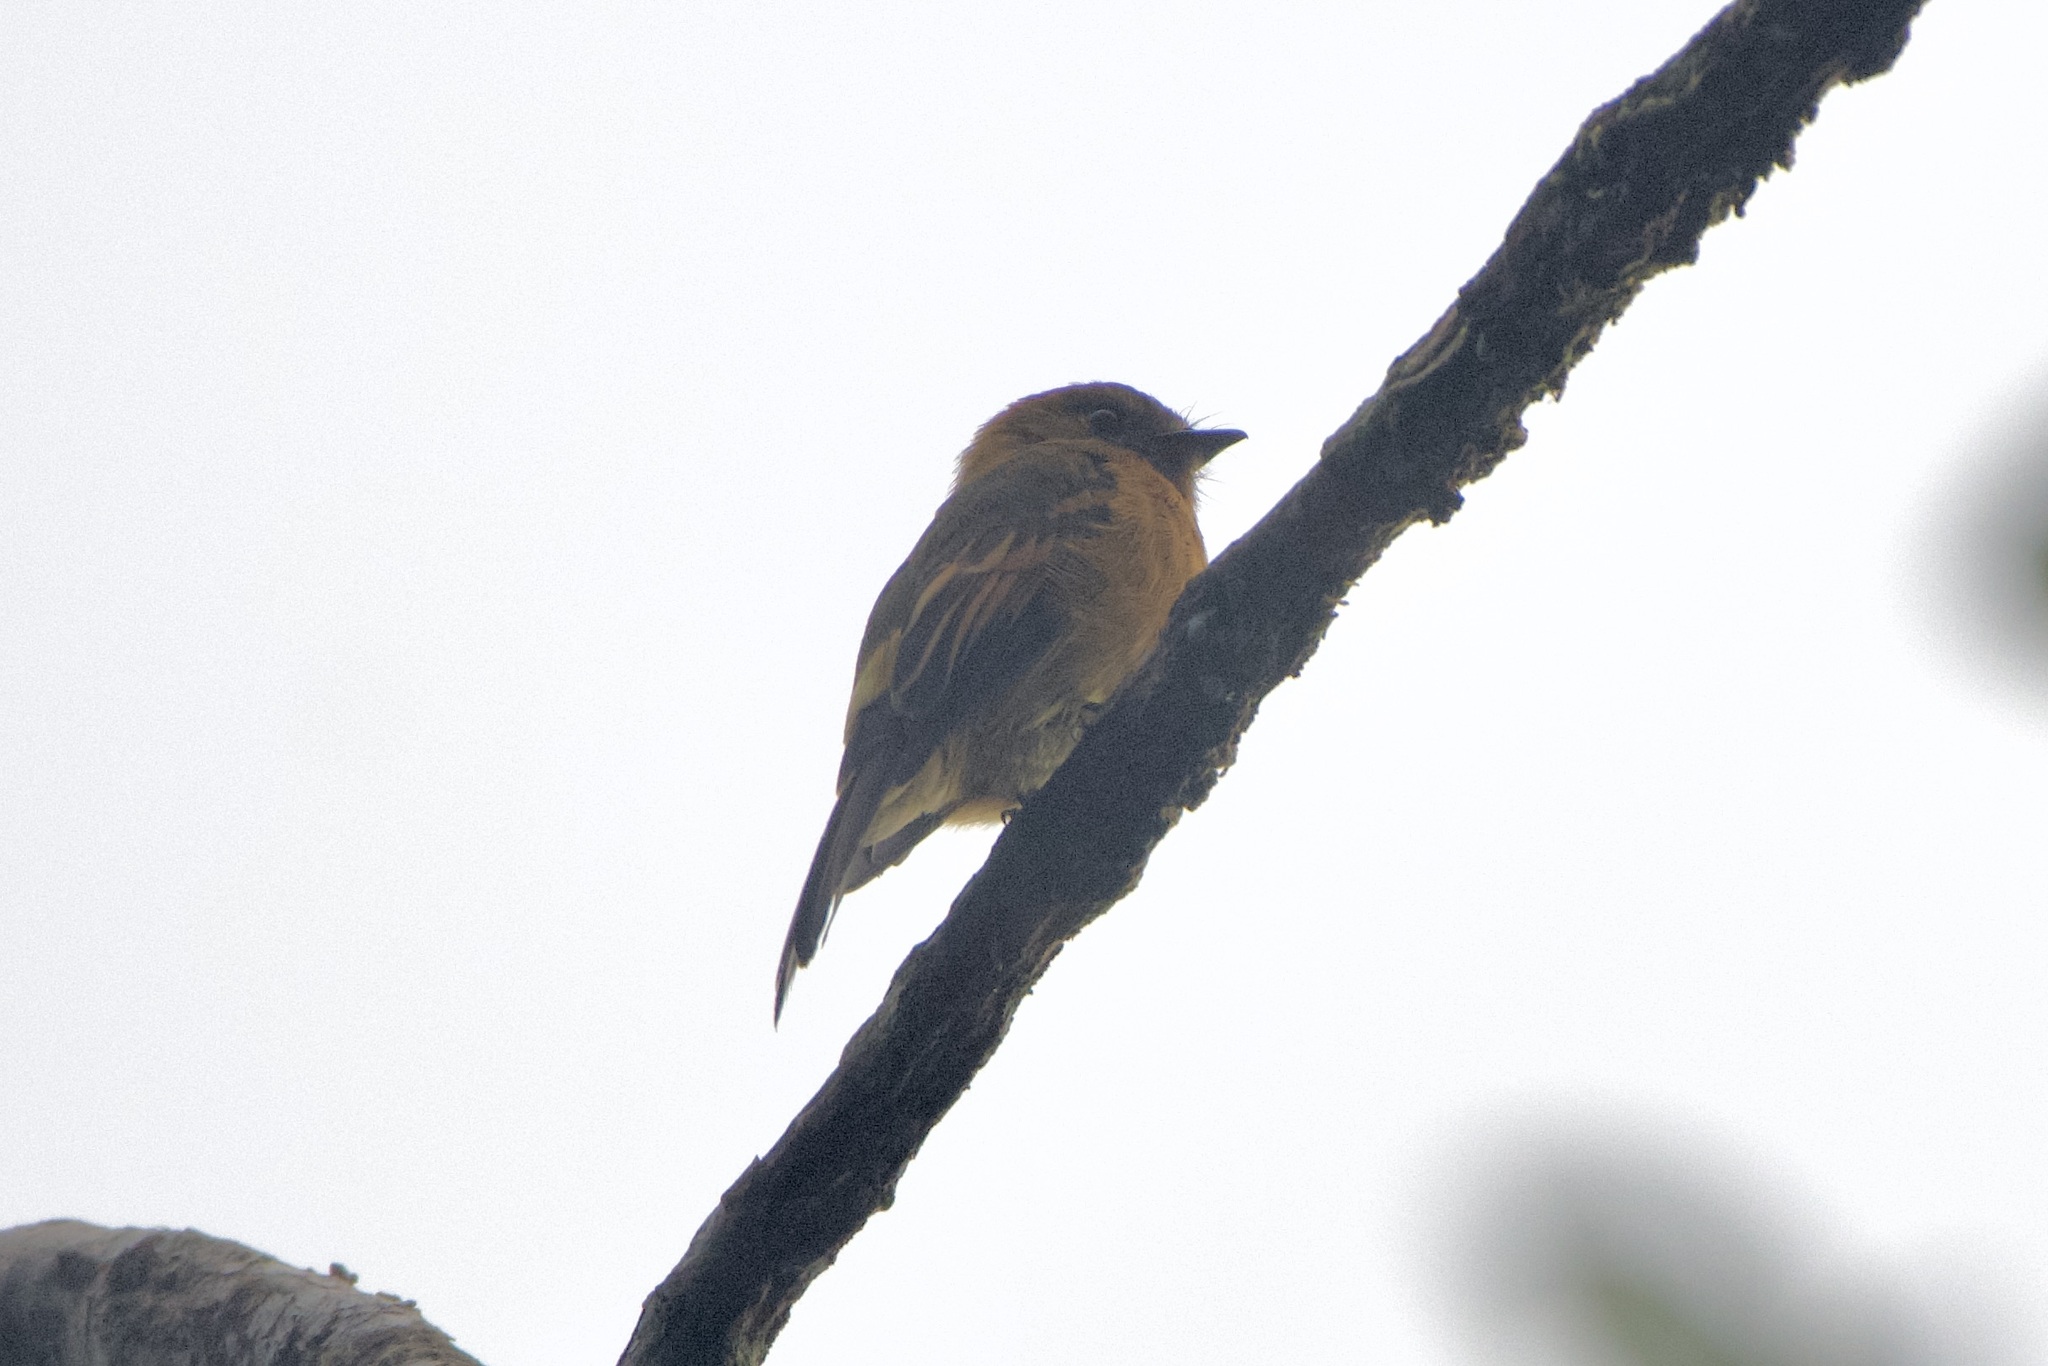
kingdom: Animalia
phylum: Chordata
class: Aves
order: Passeriformes
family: Tyrannidae
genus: Pyrrhomyias
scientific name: Pyrrhomyias cinnamomeus
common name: Cinnamon flycatcher
